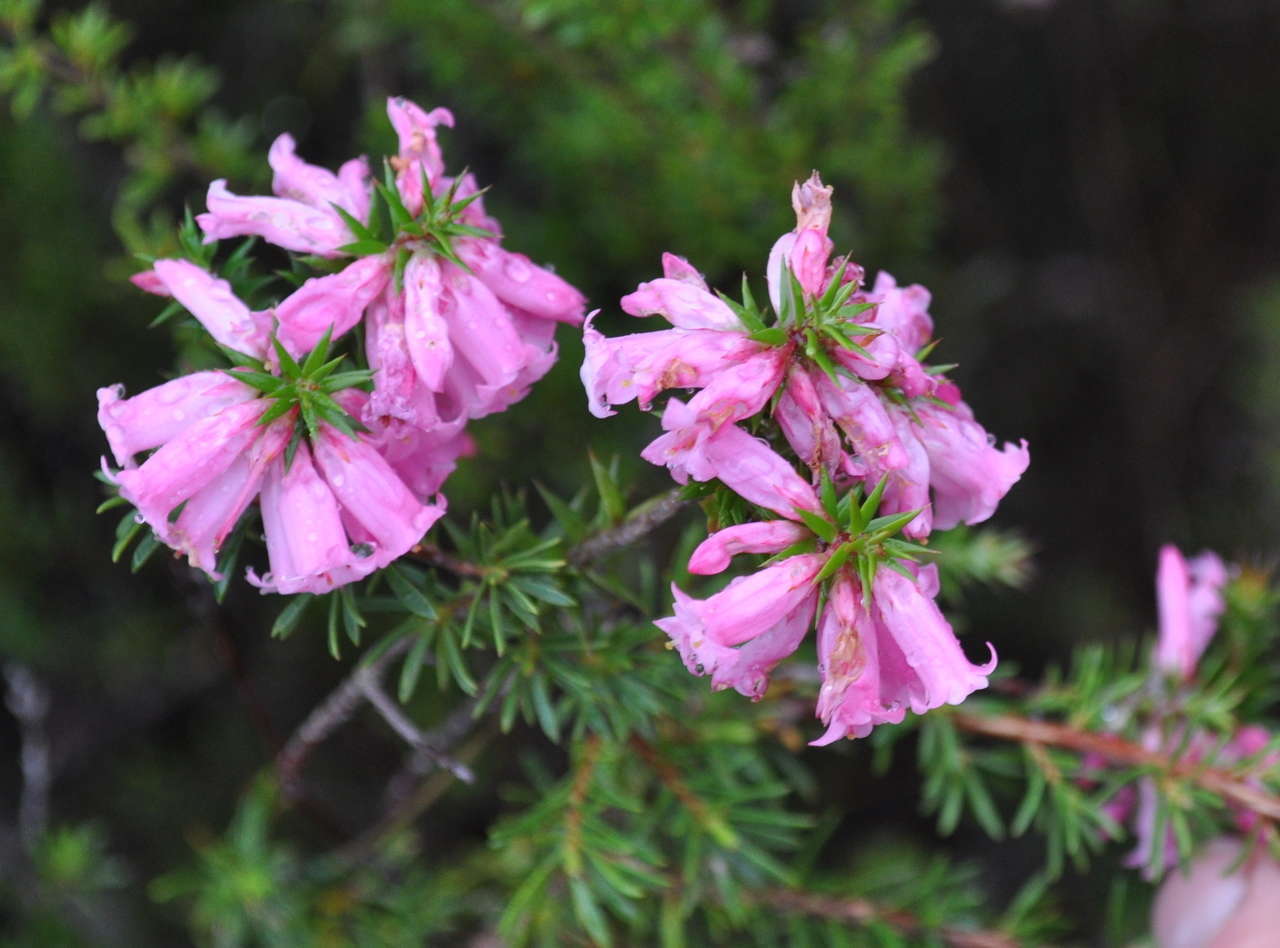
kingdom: Plantae
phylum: Tracheophyta
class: Magnoliopsida
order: Ericales
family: Ericaceae
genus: Epacris
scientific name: Epacris impressa
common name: Common-heath
